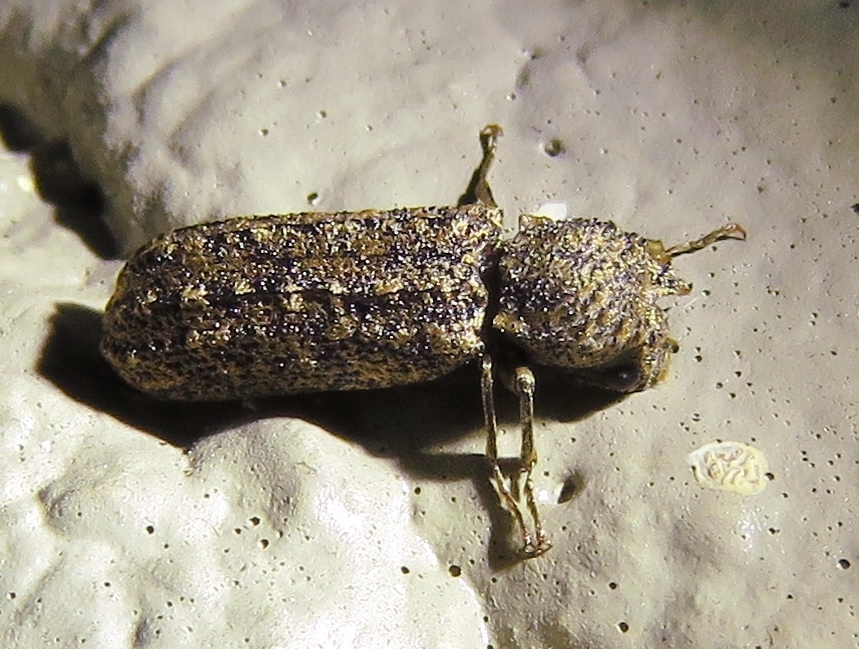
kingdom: Animalia
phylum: Arthropoda
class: Insecta
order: Coleoptera
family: Bostrichidae
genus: Lichenophanes
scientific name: Lichenophanes bicornis
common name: Two-horned powder-post beetle
